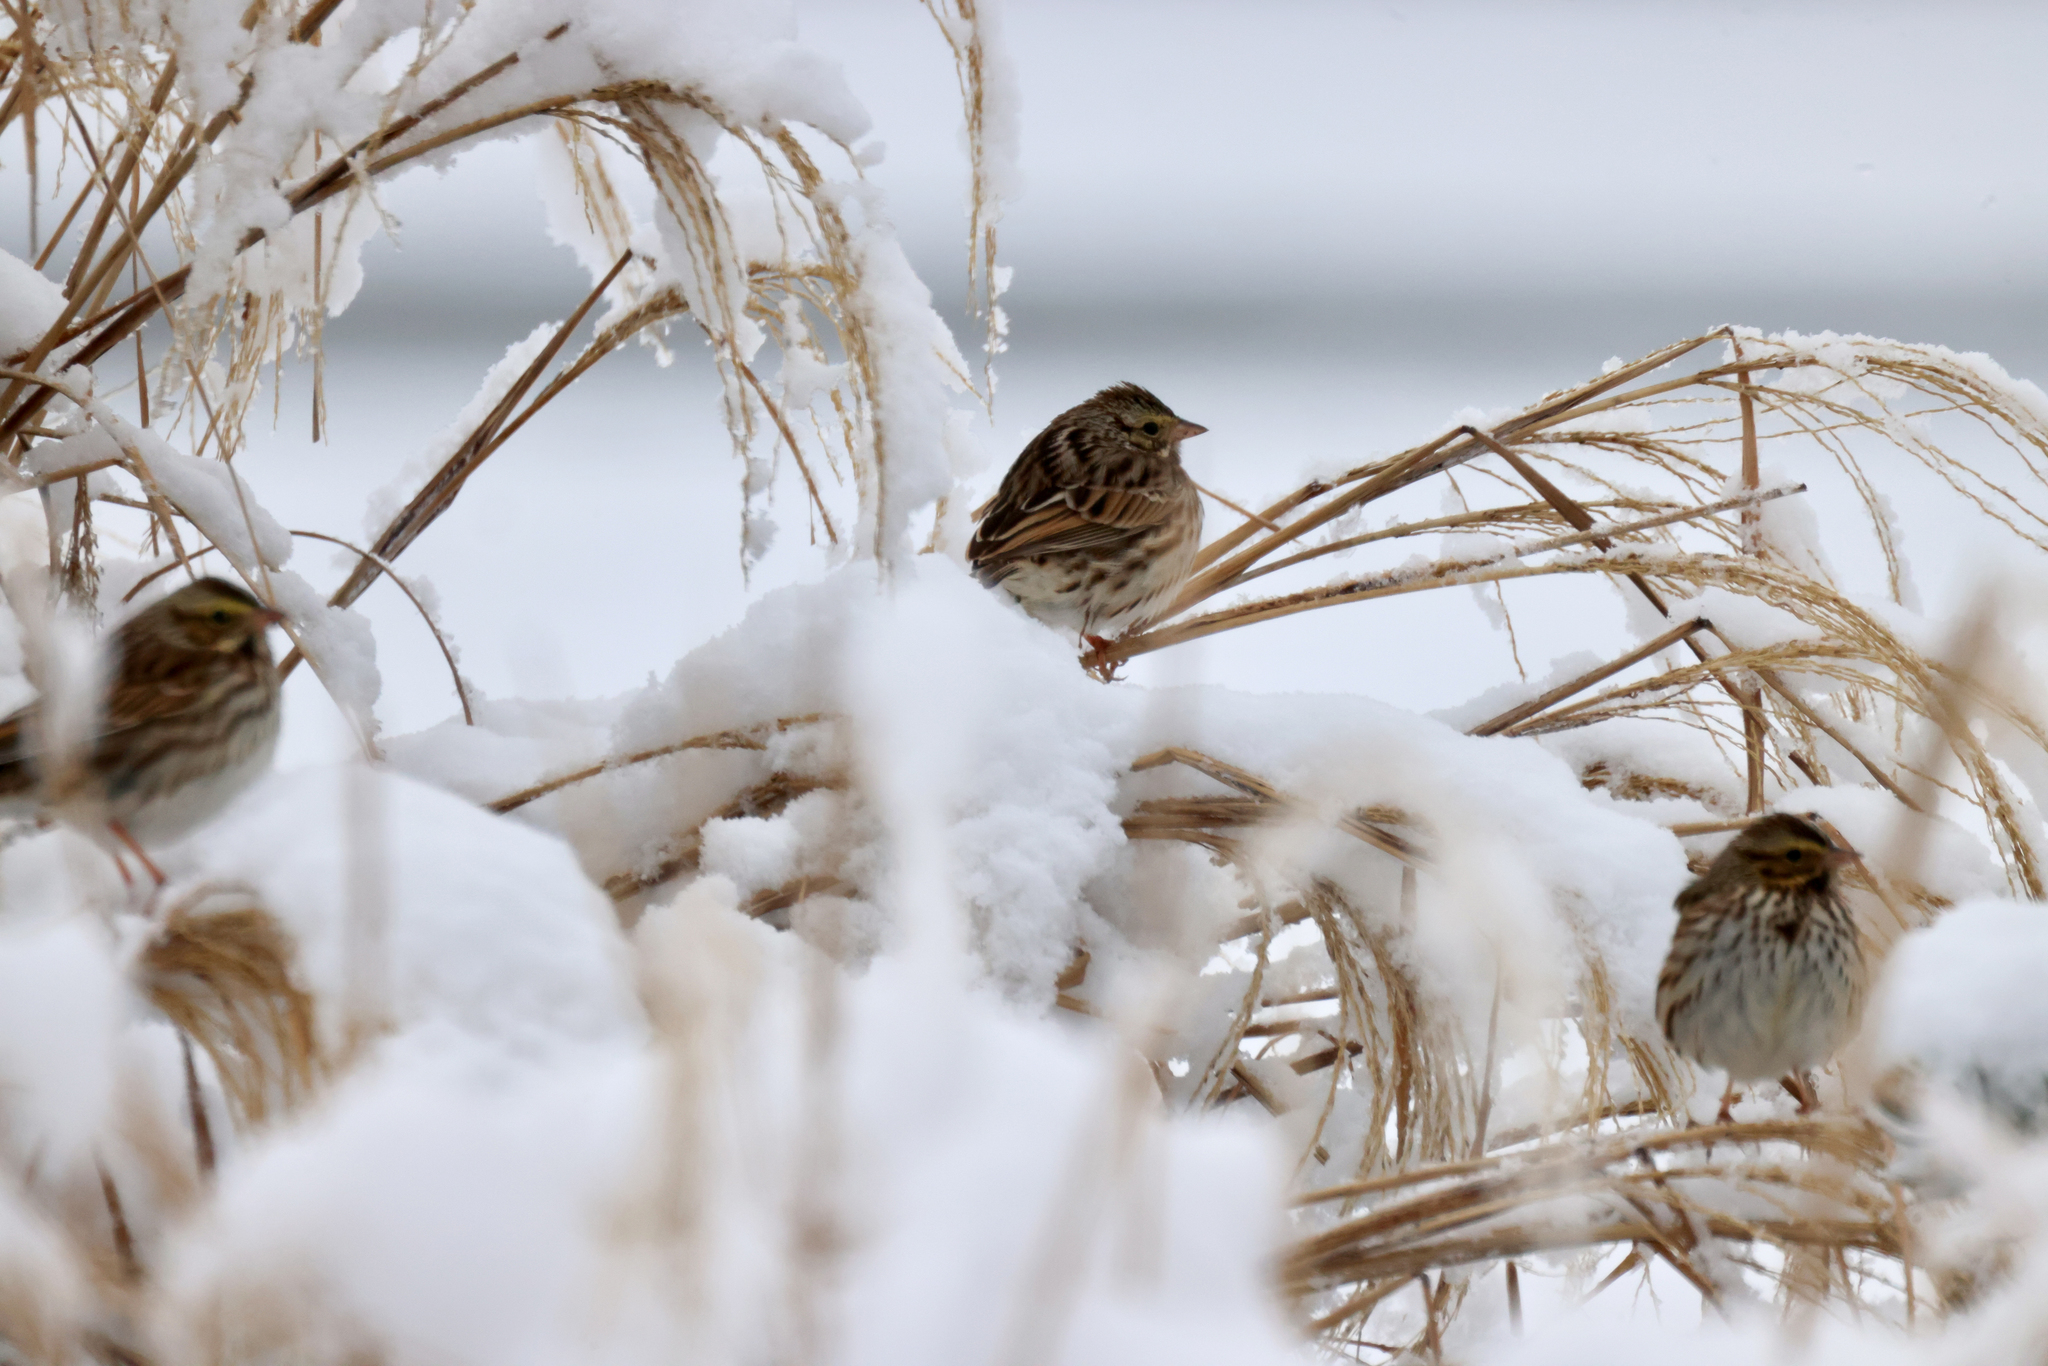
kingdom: Animalia
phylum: Chordata
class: Aves
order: Passeriformes
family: Passerellidae
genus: Passerculus
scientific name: Passerculus sandwichensis
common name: Savannah sparrow
